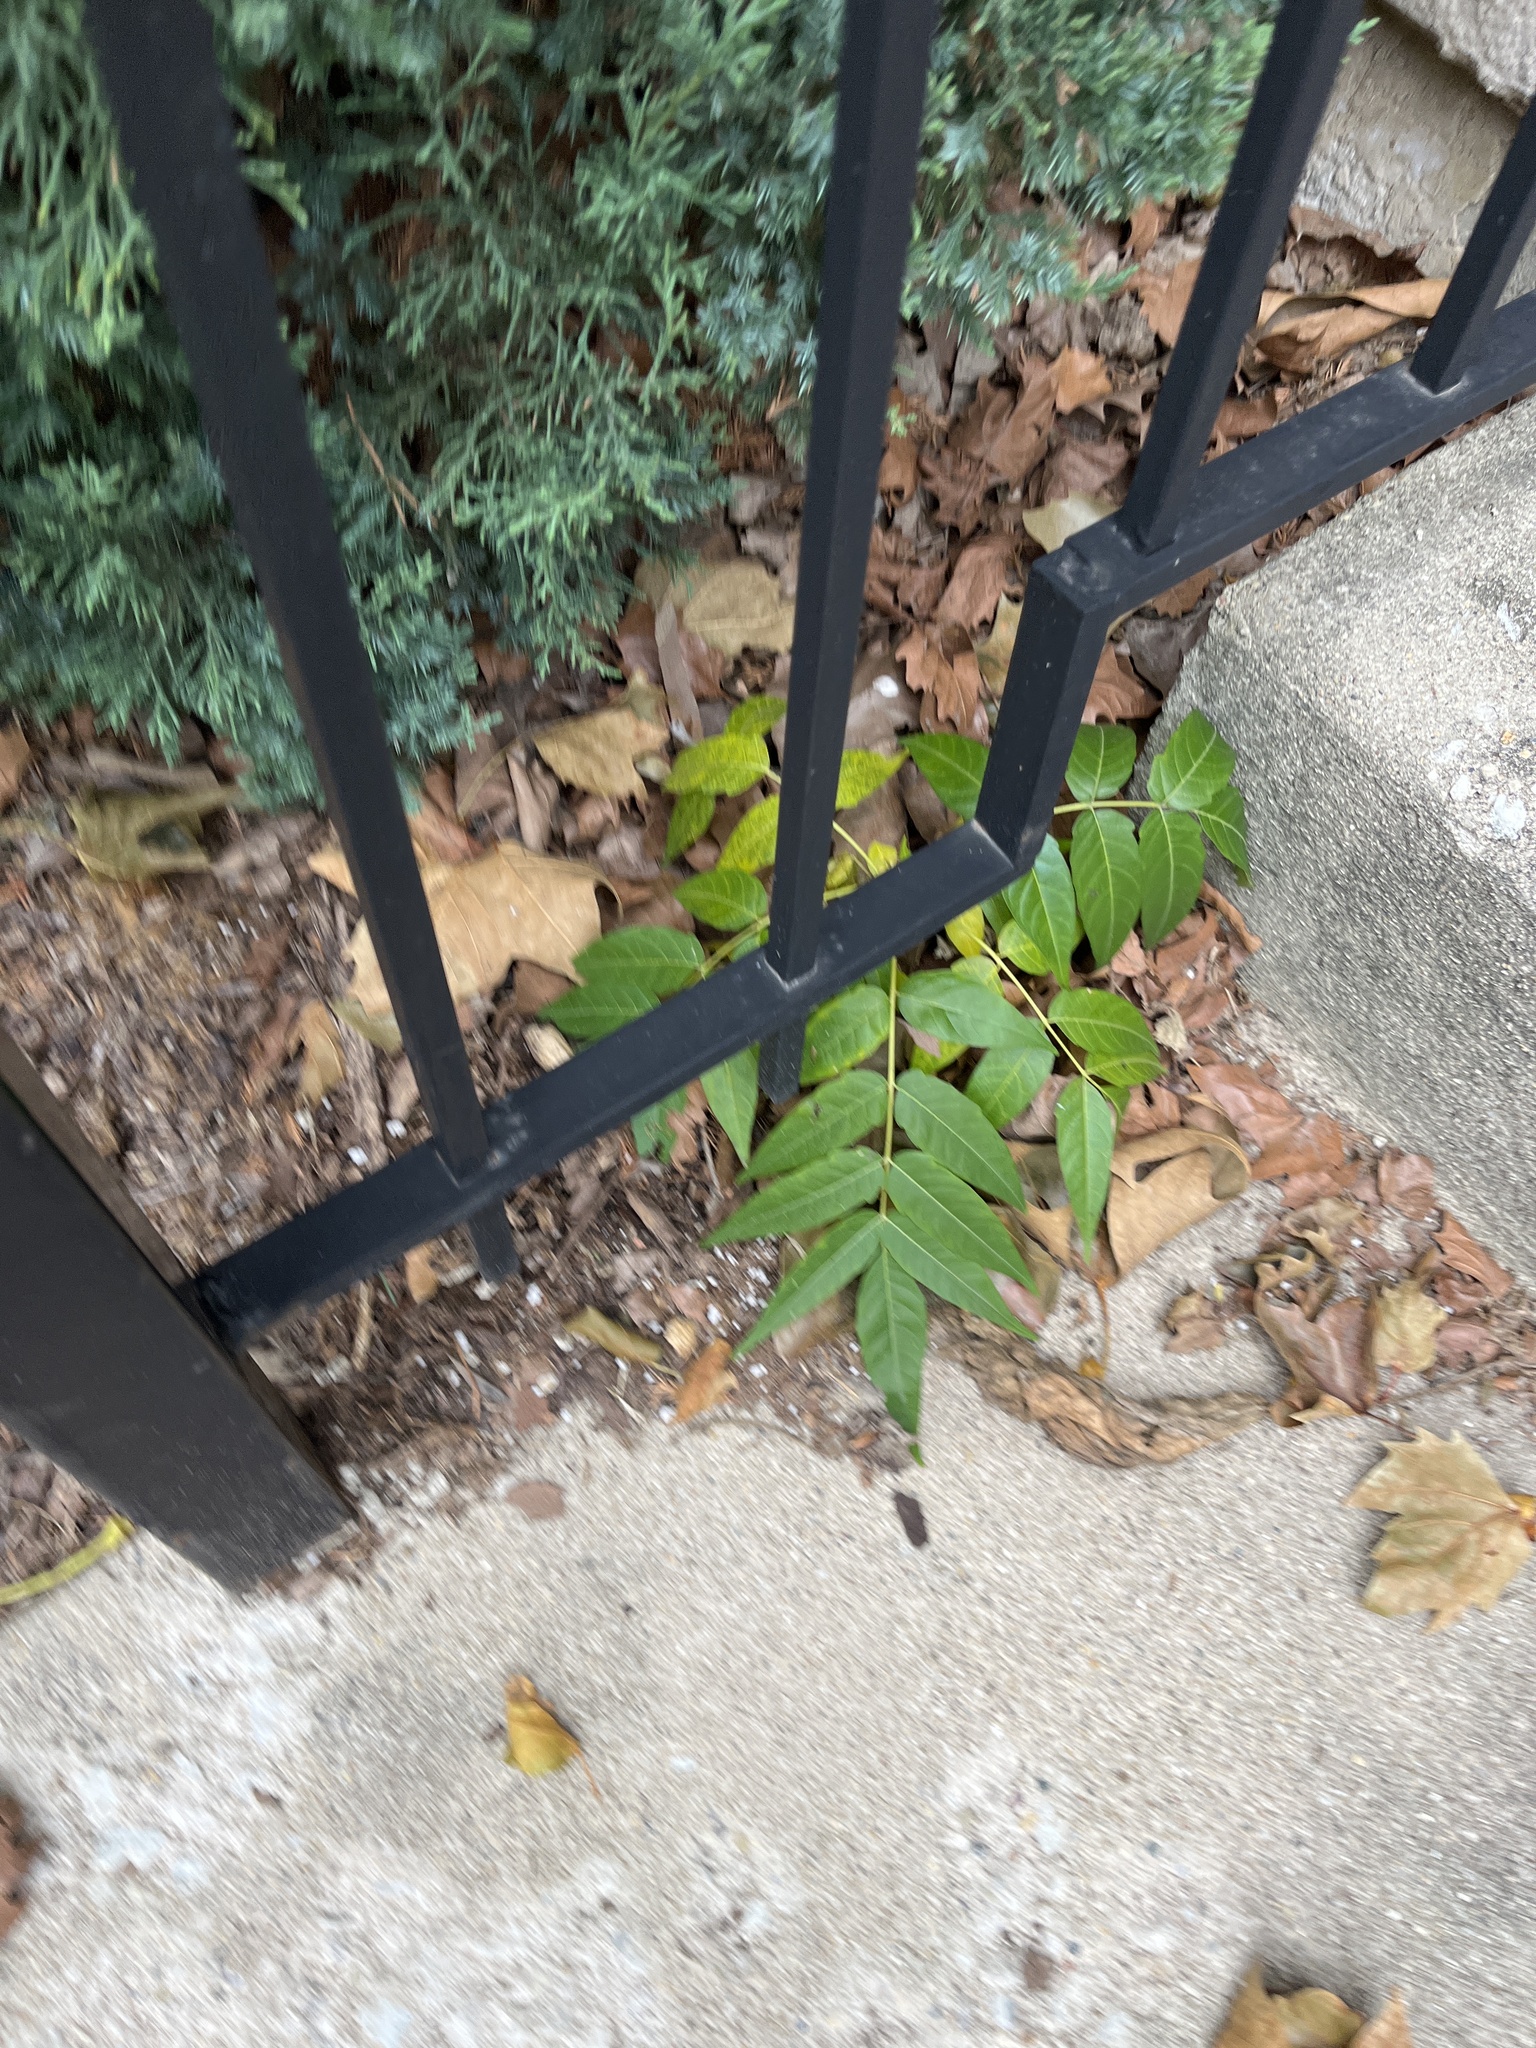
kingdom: Plantae
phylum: Tracheophyta
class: Magnoliopsida
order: Sapindales
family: Simaroubaceae
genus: Ailanthus
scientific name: Ailanthus altissima
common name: Tree-of-heaven
